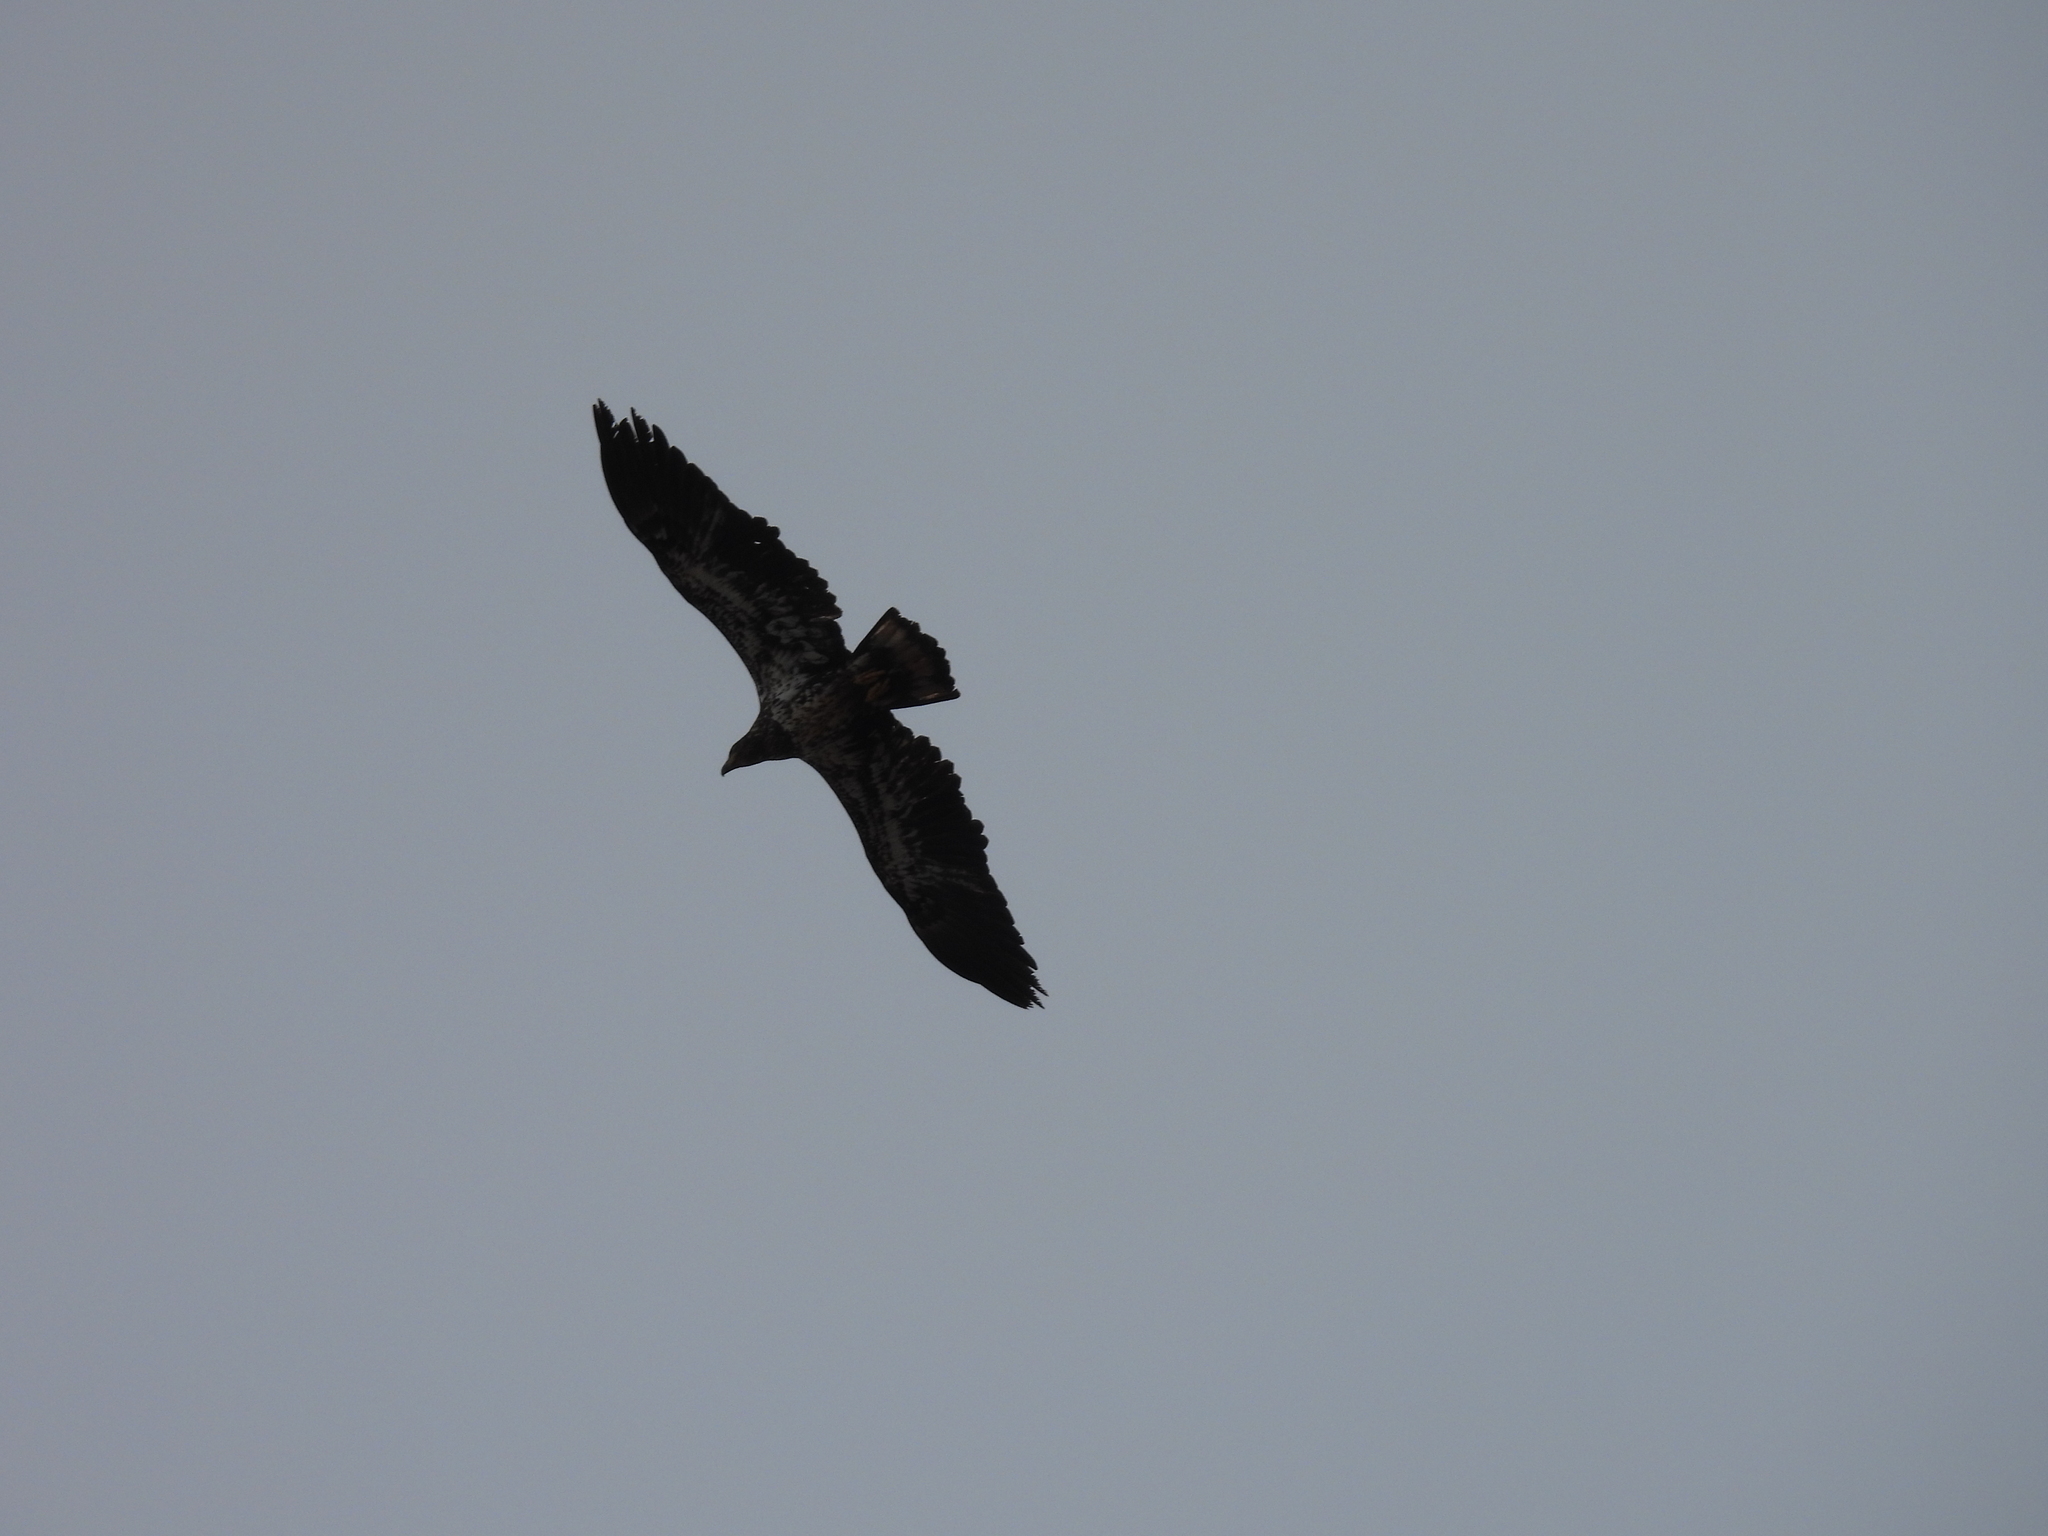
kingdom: Animalia
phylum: Chordata
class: Aves
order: Accipitriformes
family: Accipitridae
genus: Haliaeetus
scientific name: Haliaeetus leucocephalus
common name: Bald eagle
